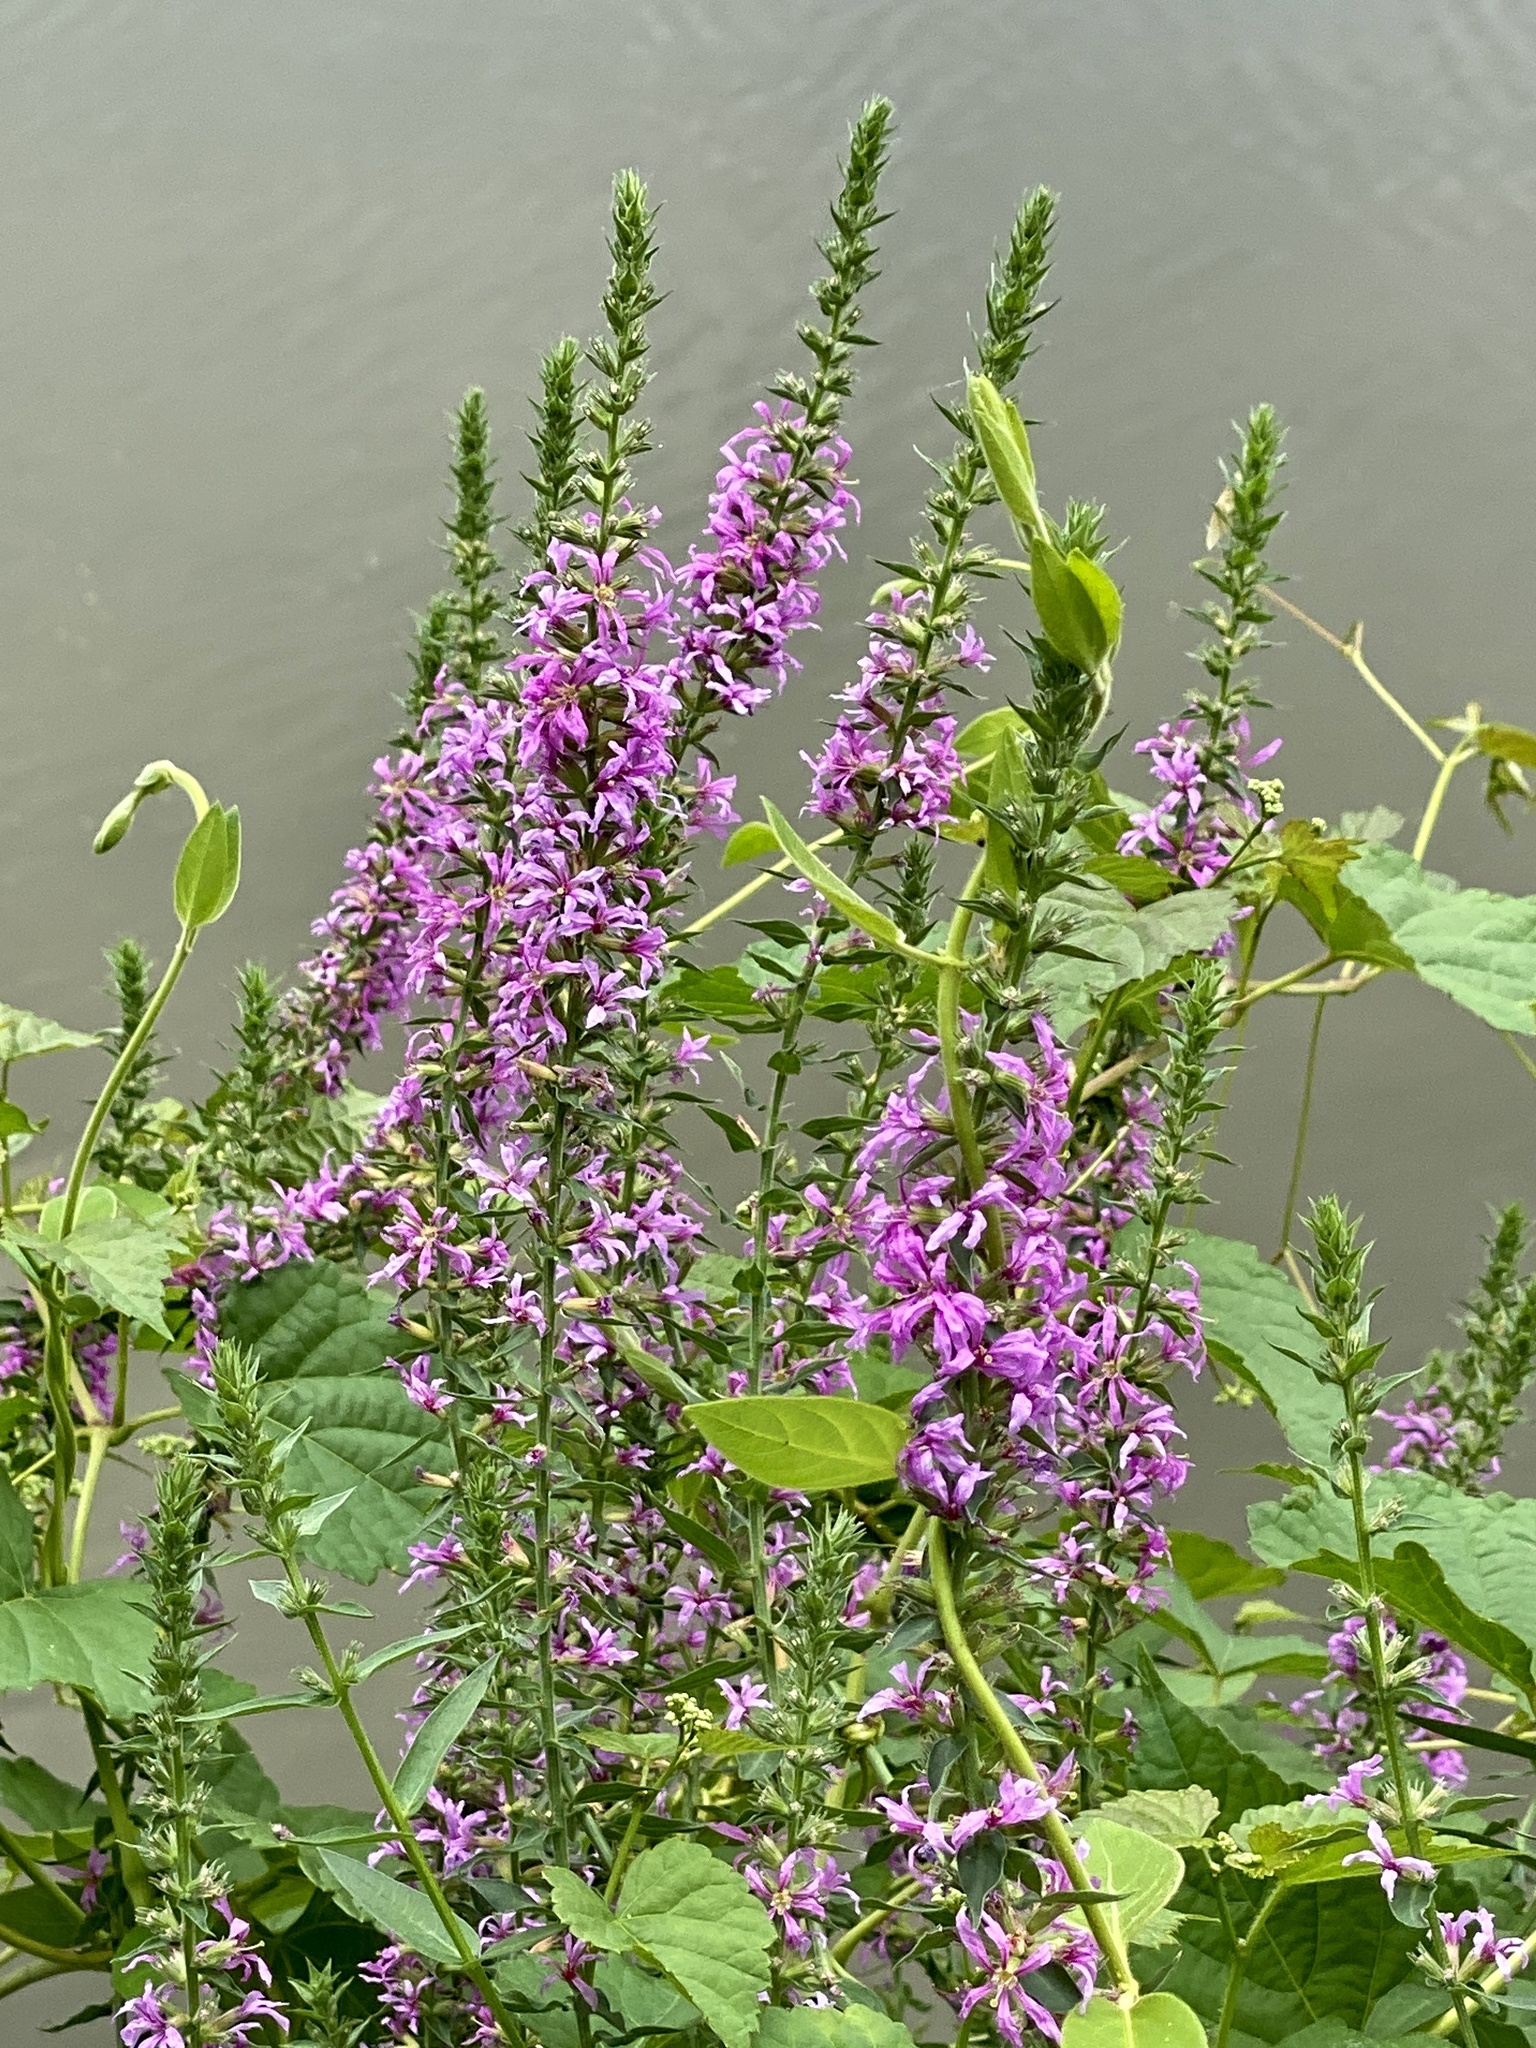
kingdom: Plantae
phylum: Tracheophyta
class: Magnoliopsida
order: Myrtales
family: Lythraceae
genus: Lythrum
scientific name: Lythrum salicaria
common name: Purple loosestrife
